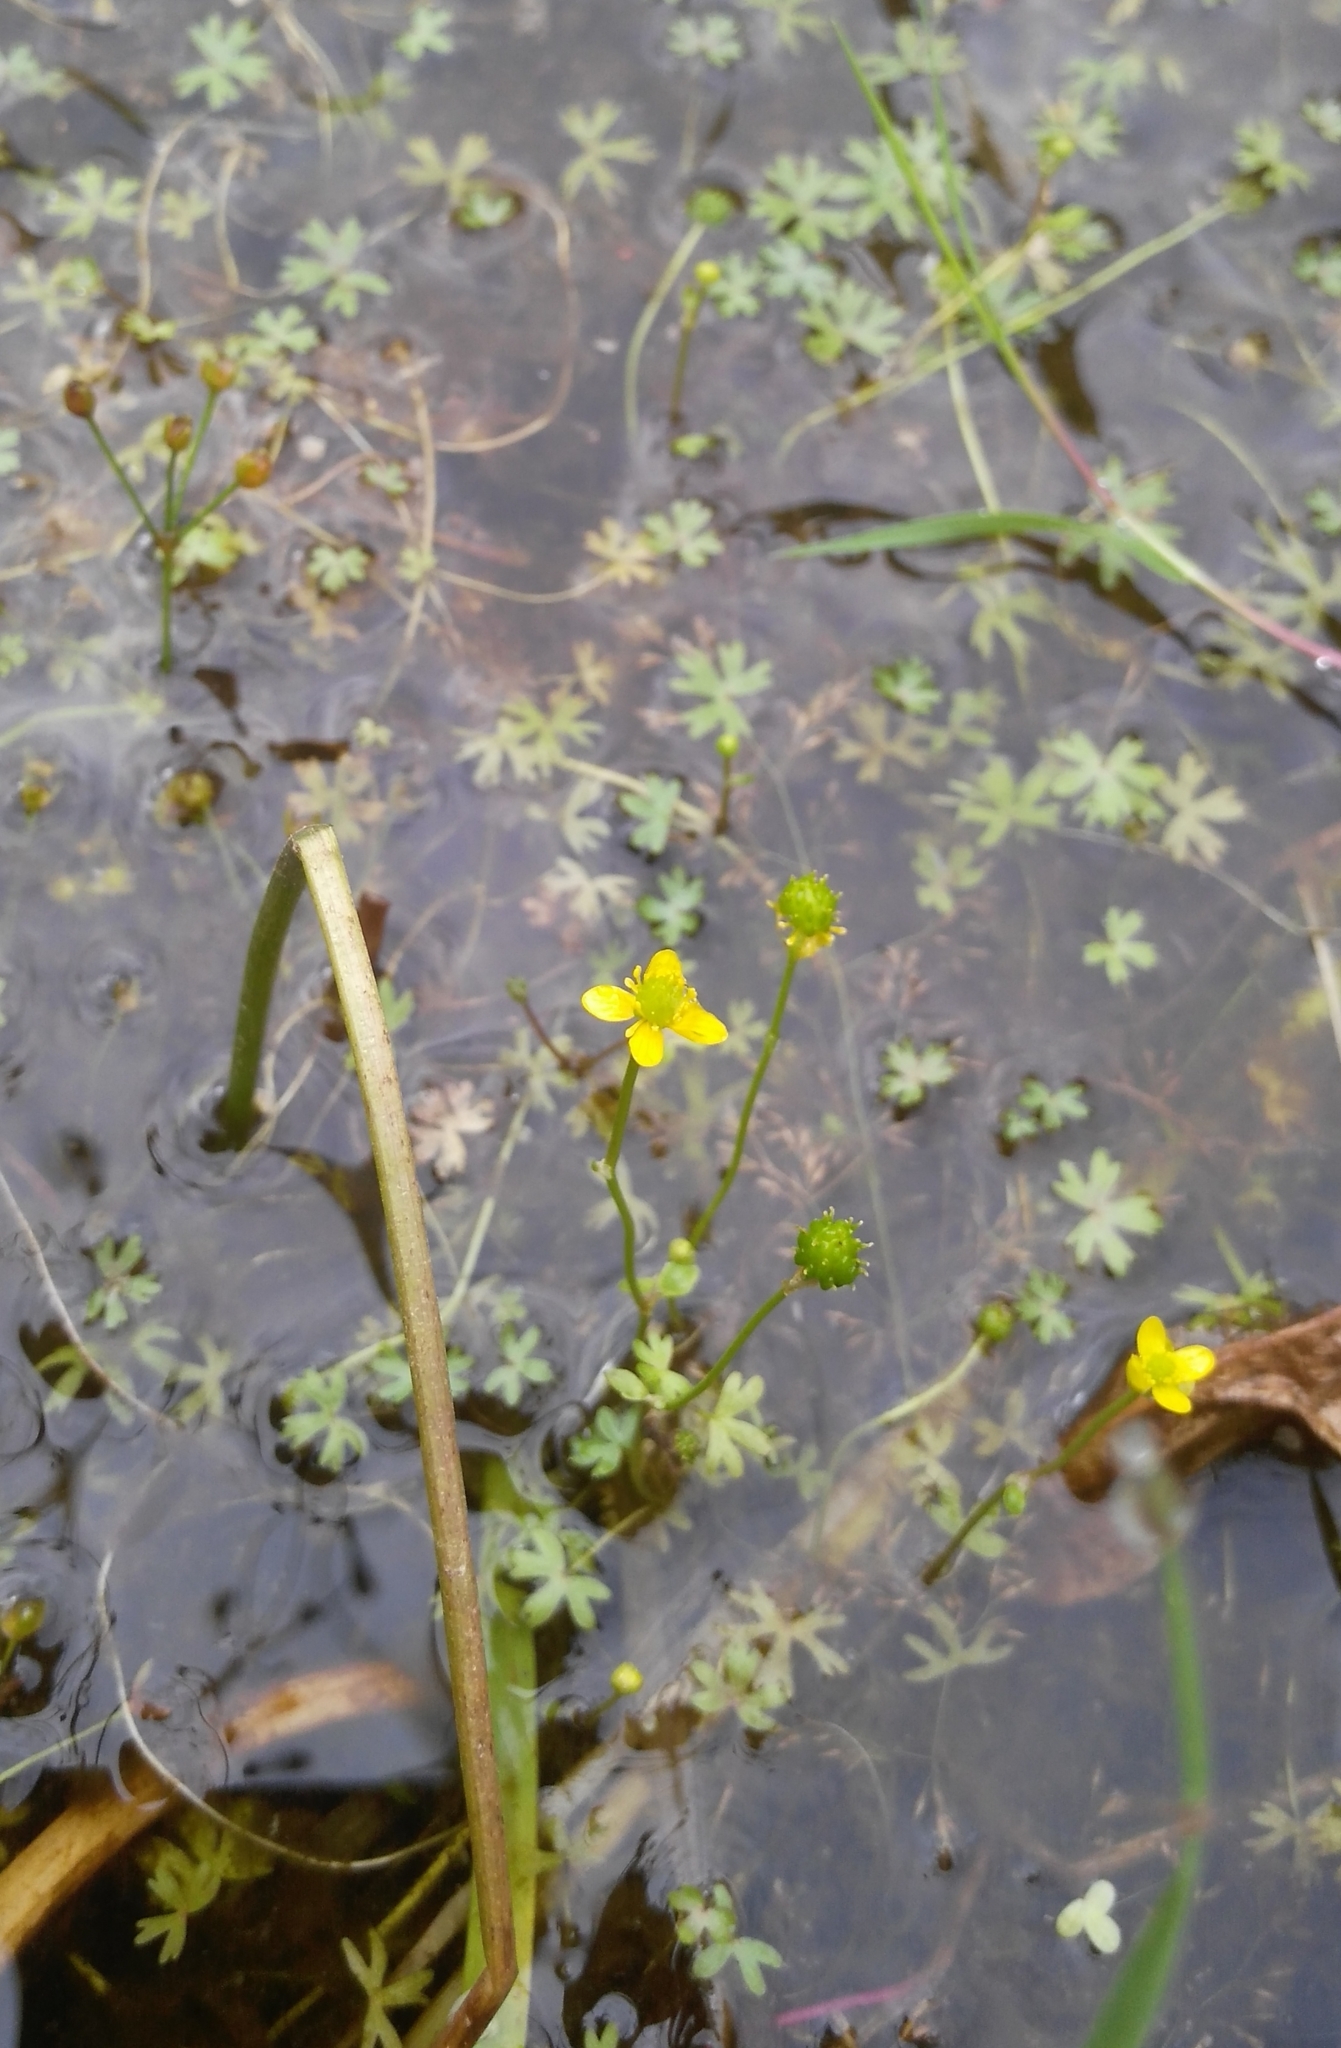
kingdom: Plantae
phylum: Tracheophyta
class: Magnoliopsida
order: Ranunculales
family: Ranunculaceae
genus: Ranunculus
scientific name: Ranunculus gmelinii
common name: Gmelin's buttercup
